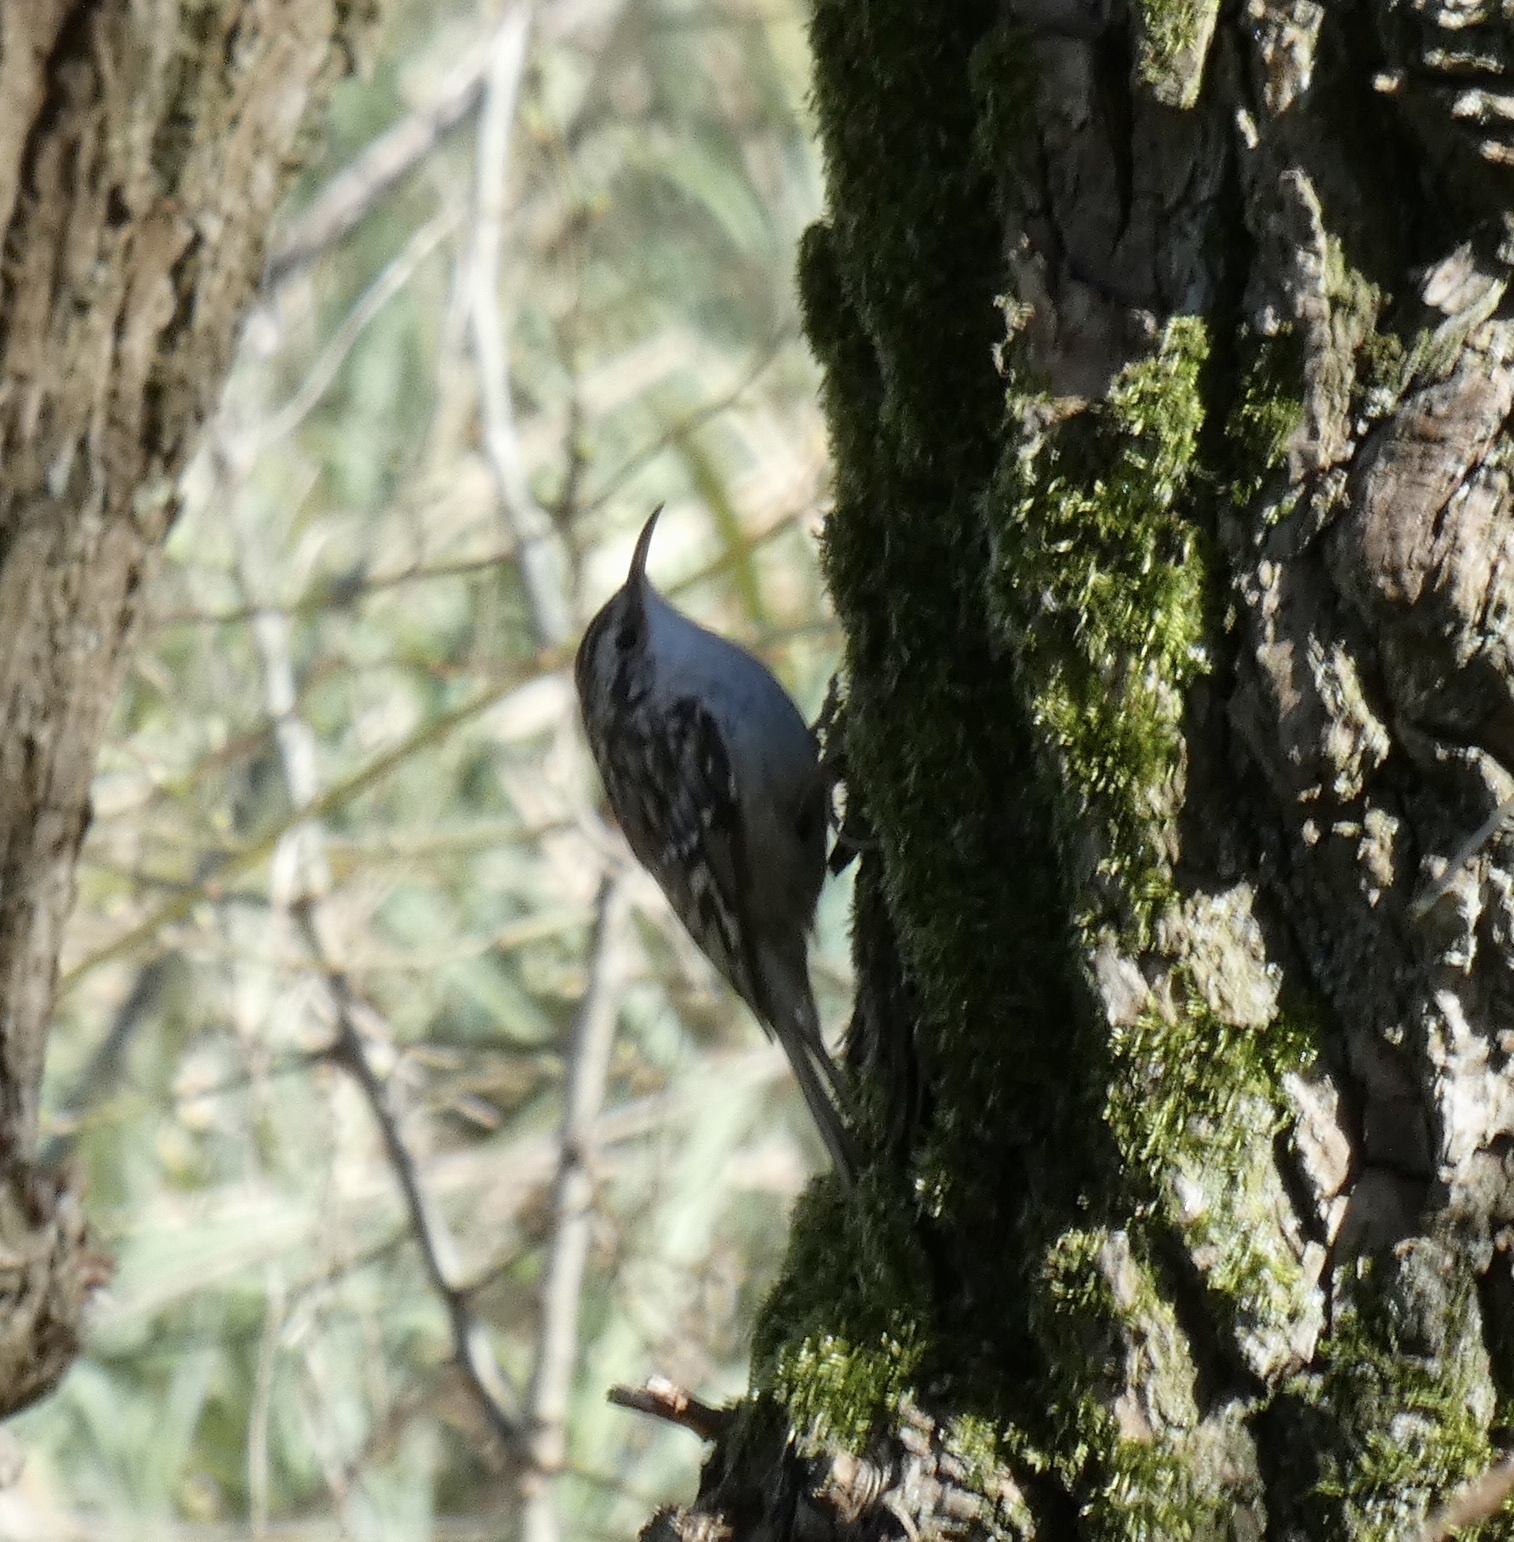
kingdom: Animalia
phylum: Chordata
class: Aves
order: Passeriformes
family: Certhiidae
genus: Certhia
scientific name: Certhia brachydactyla
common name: Short-toed treecreeper
